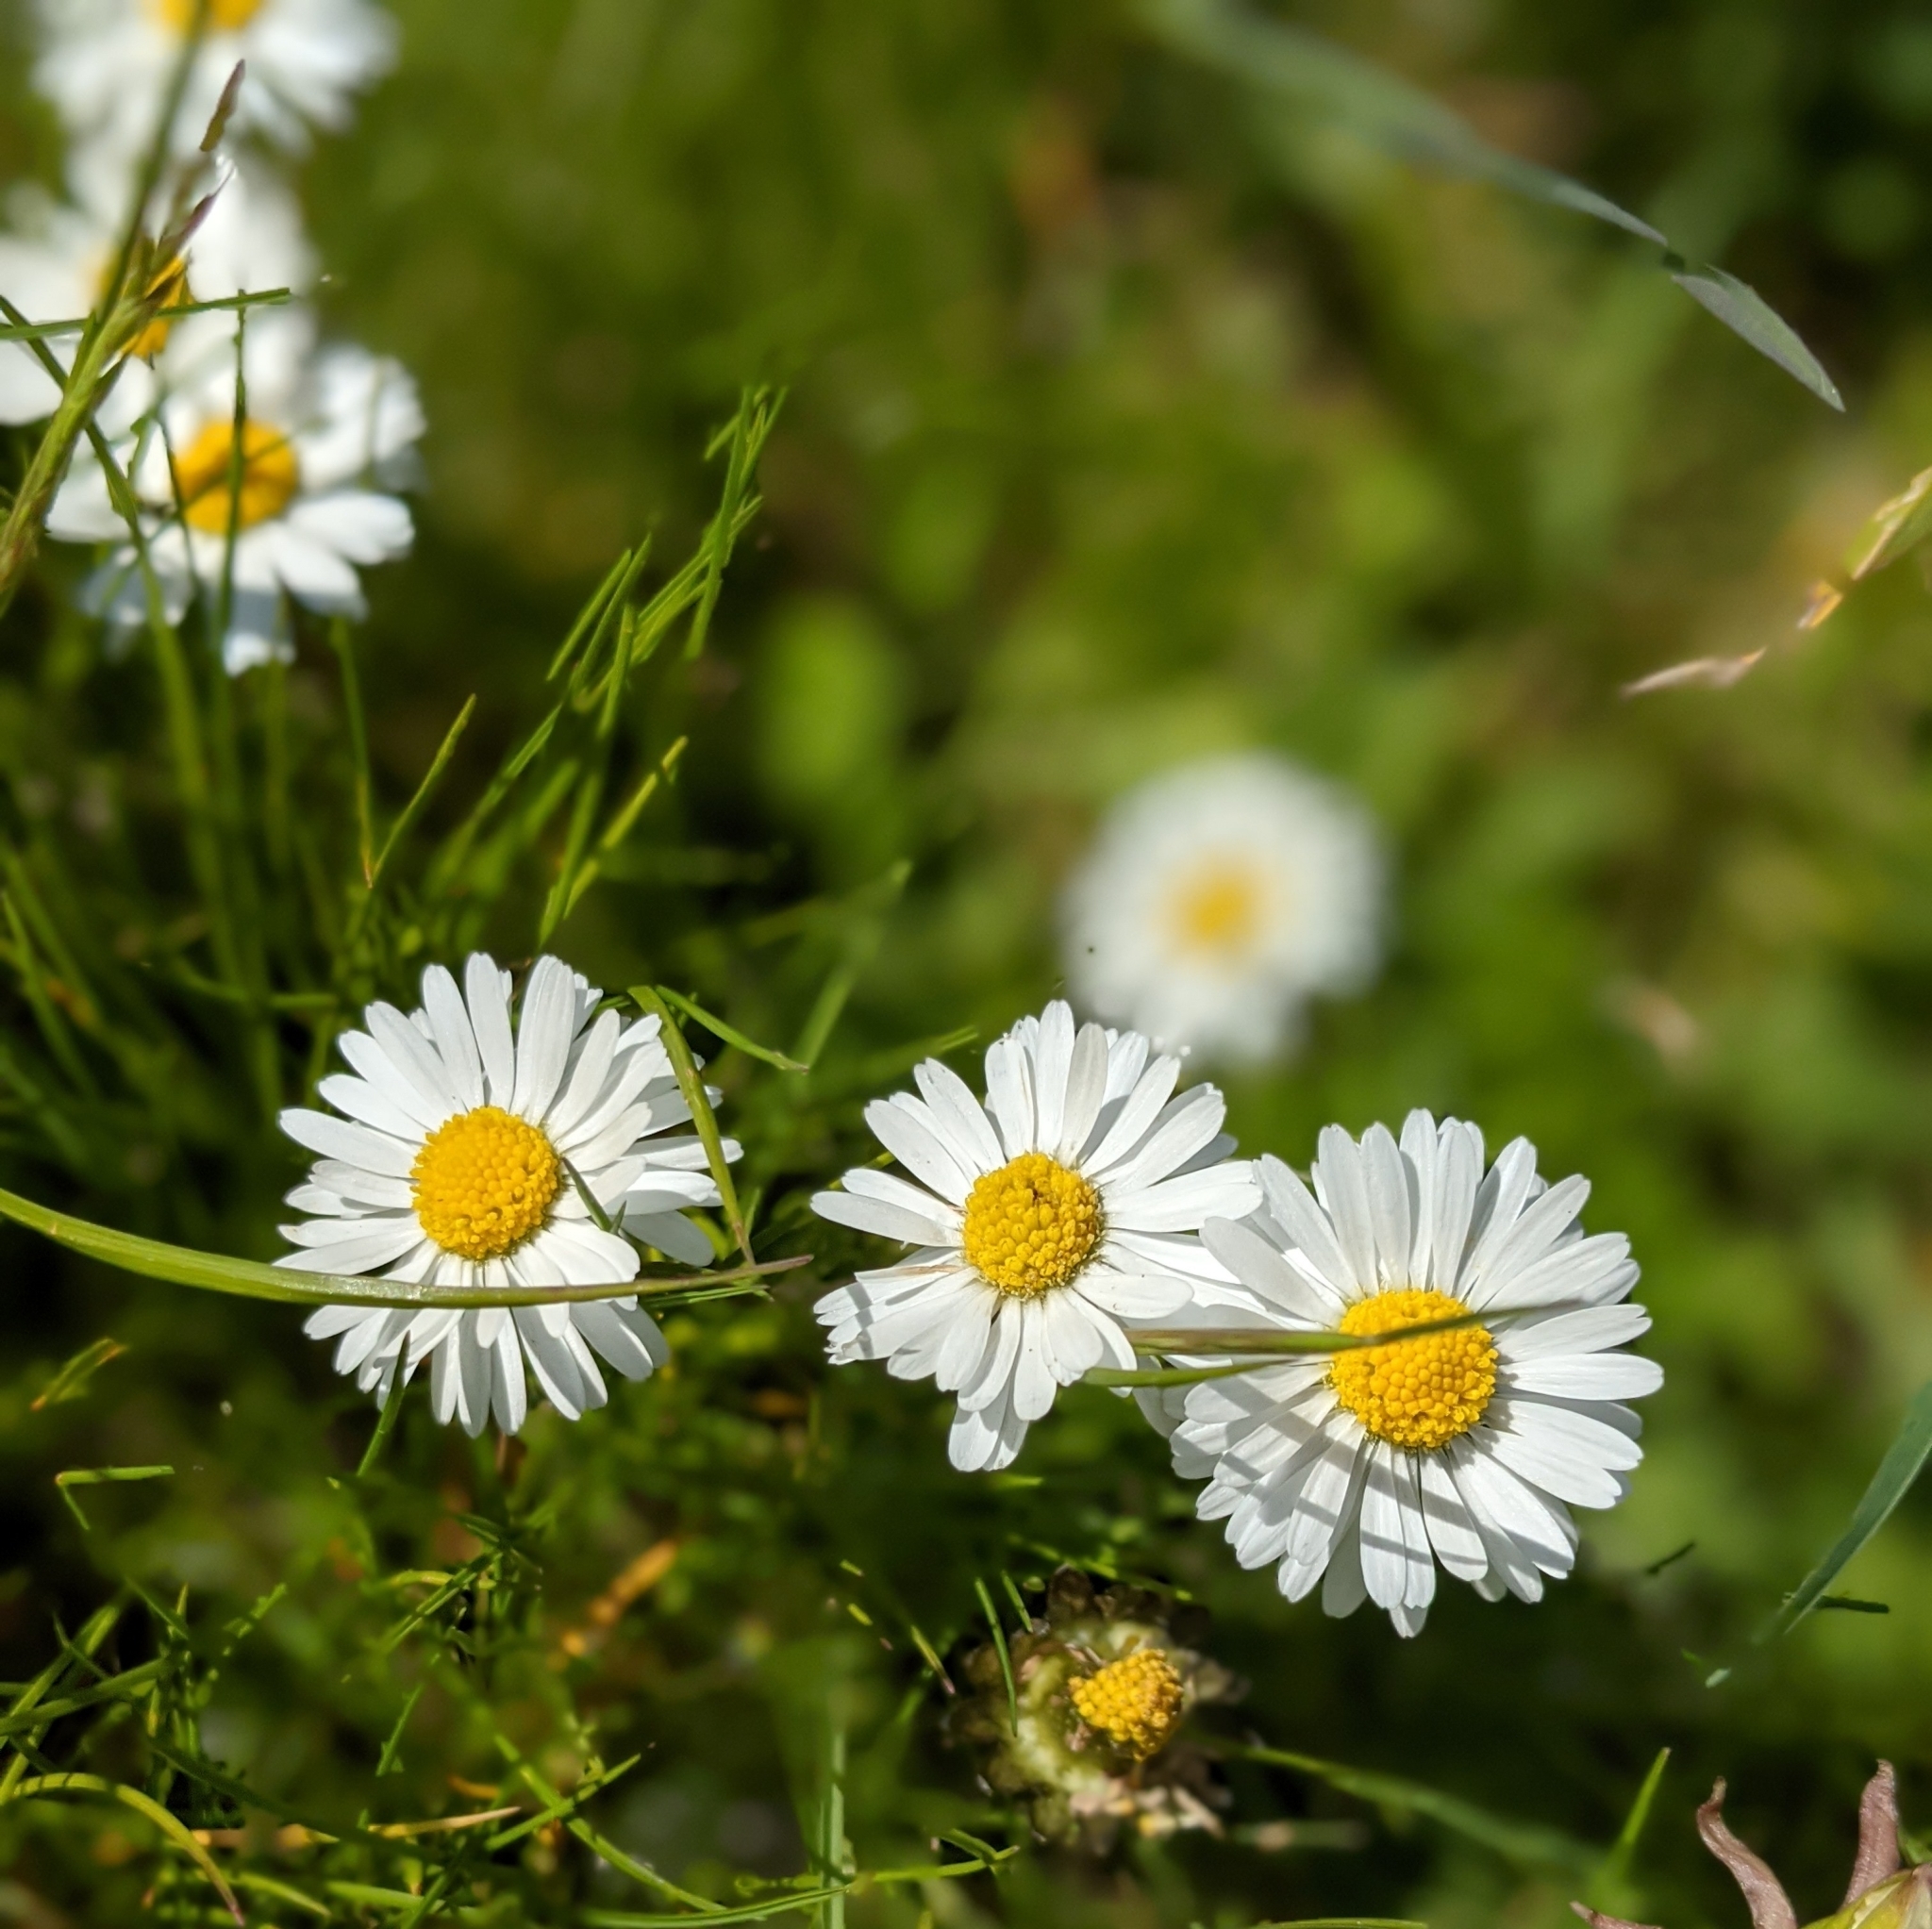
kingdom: Plantae
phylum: Tracheophyta
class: Magnoliopsida
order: Asterales
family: Asteraceae
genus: Bellis
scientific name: Bellis perennis
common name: Lawndaisy
